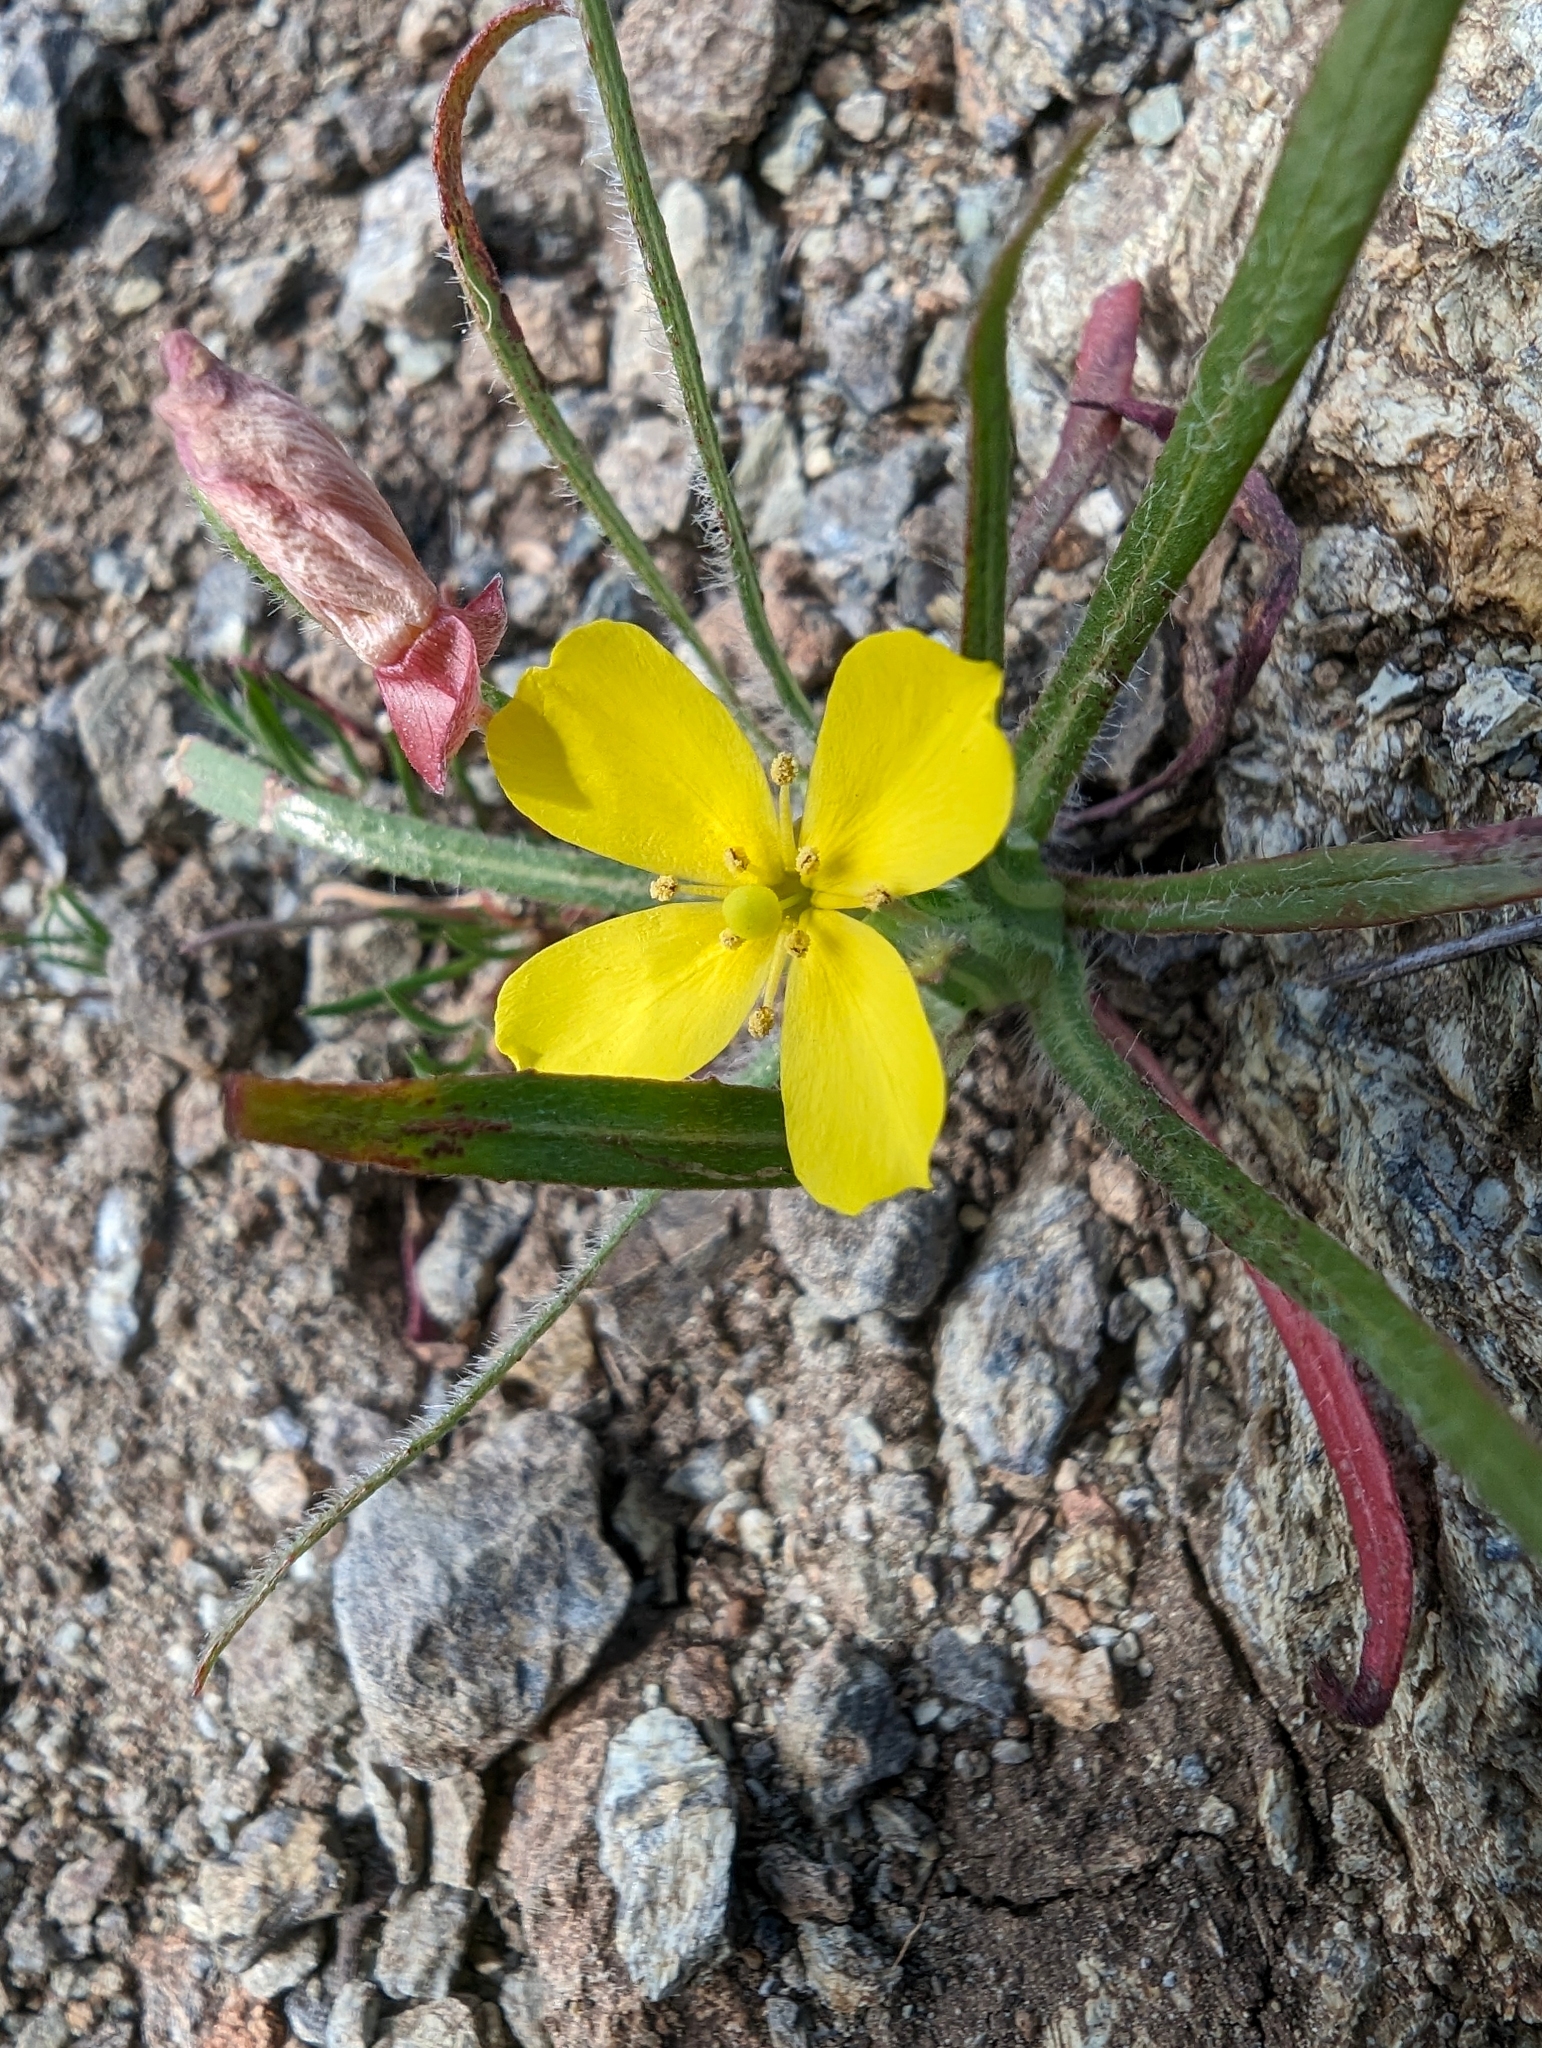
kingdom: Plantae
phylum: Tracheophyta
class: Magnoliopsida
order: Myrtales
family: Onagraceae
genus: Tetrapteron
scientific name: Tetrapteron graciliflorum
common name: Hill suncup
